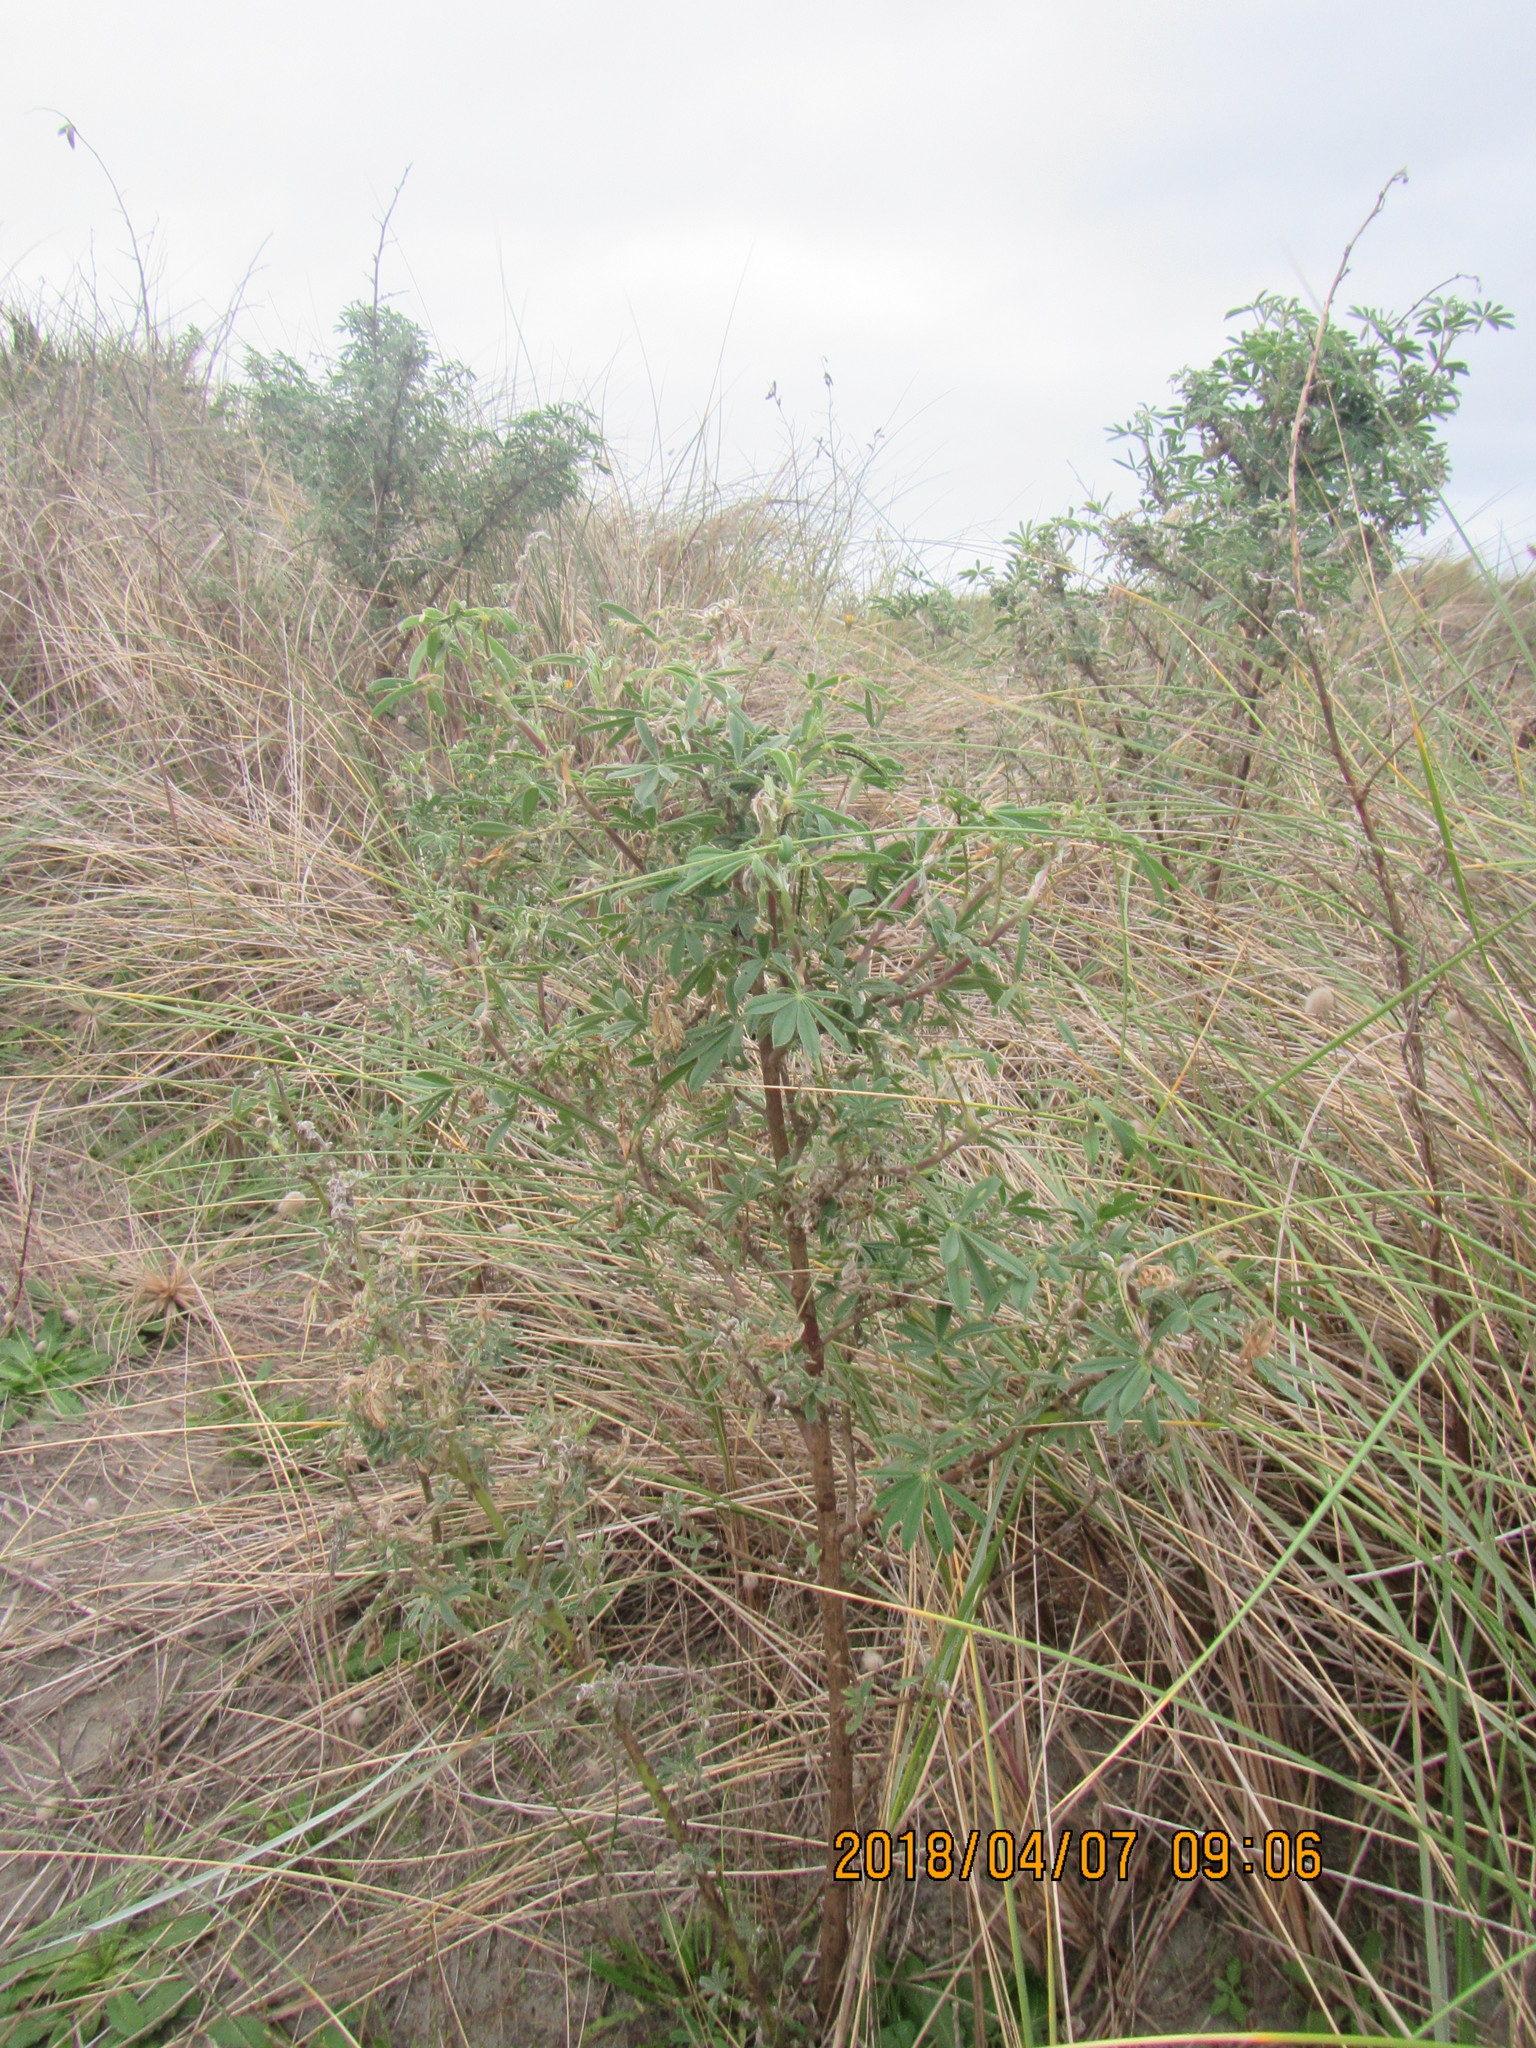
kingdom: Plantae
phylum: Tracheophyta
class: Magnoliopsida
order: Fabales
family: Fabaceae
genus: Lupinus
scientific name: Lupinus arboreus
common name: Yellow bush lupine
